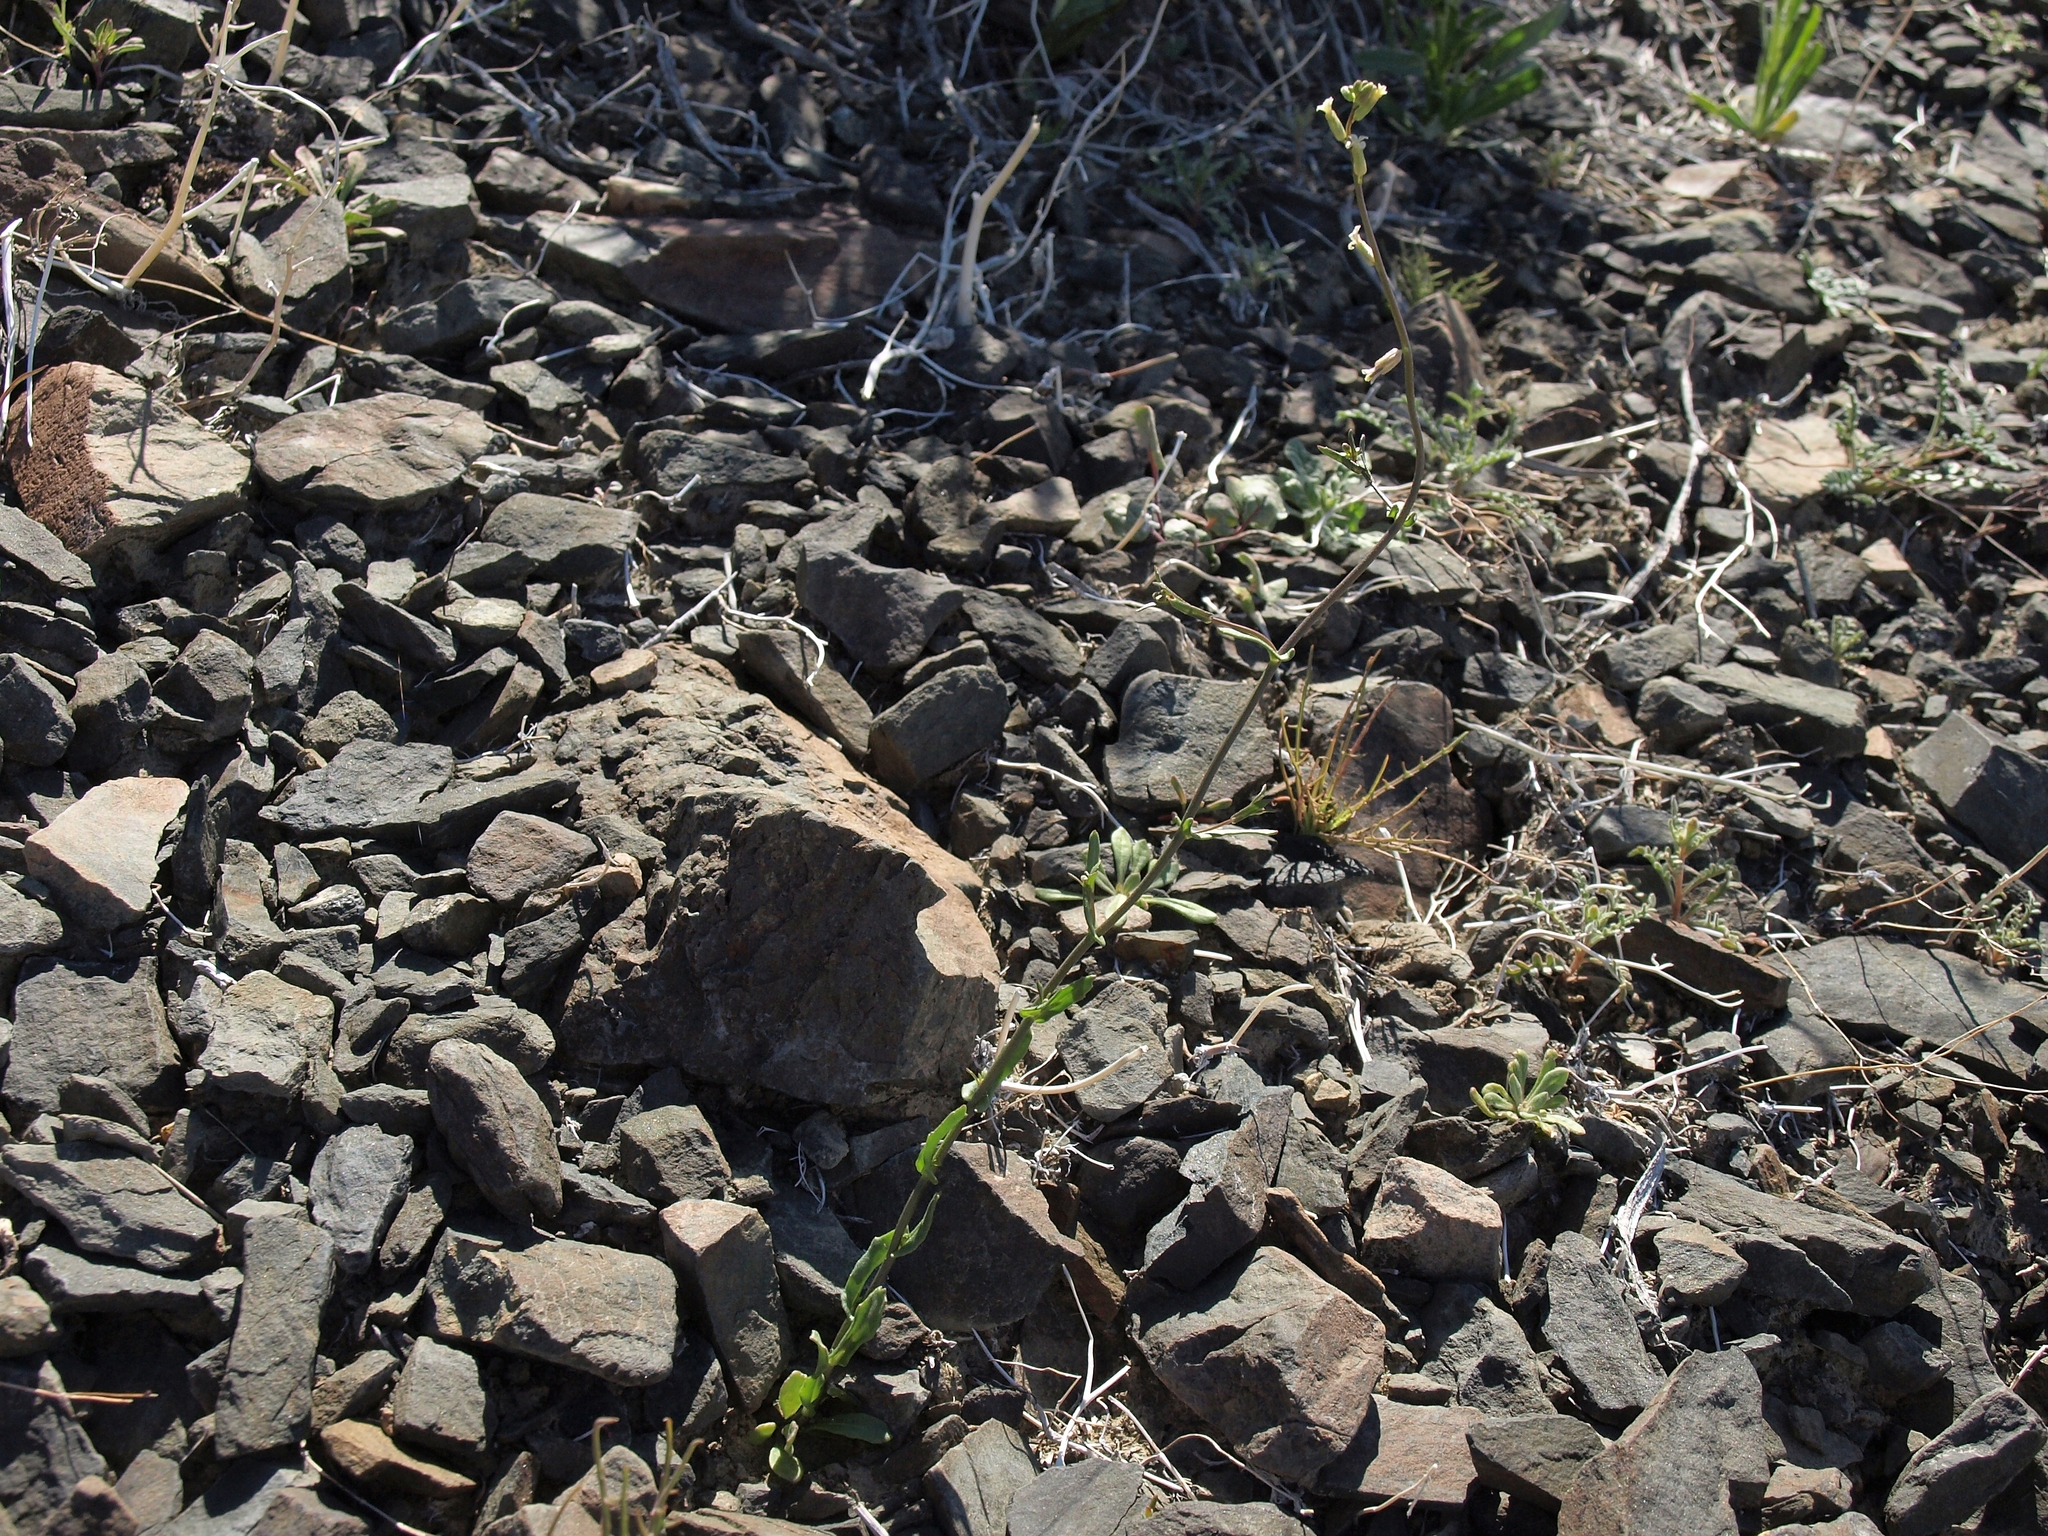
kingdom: Plantae
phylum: Tracheophyta
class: Magnoliopsida
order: Brassicales
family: Brassicaceae
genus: Streptanthus
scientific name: Streptanthus cooperi
